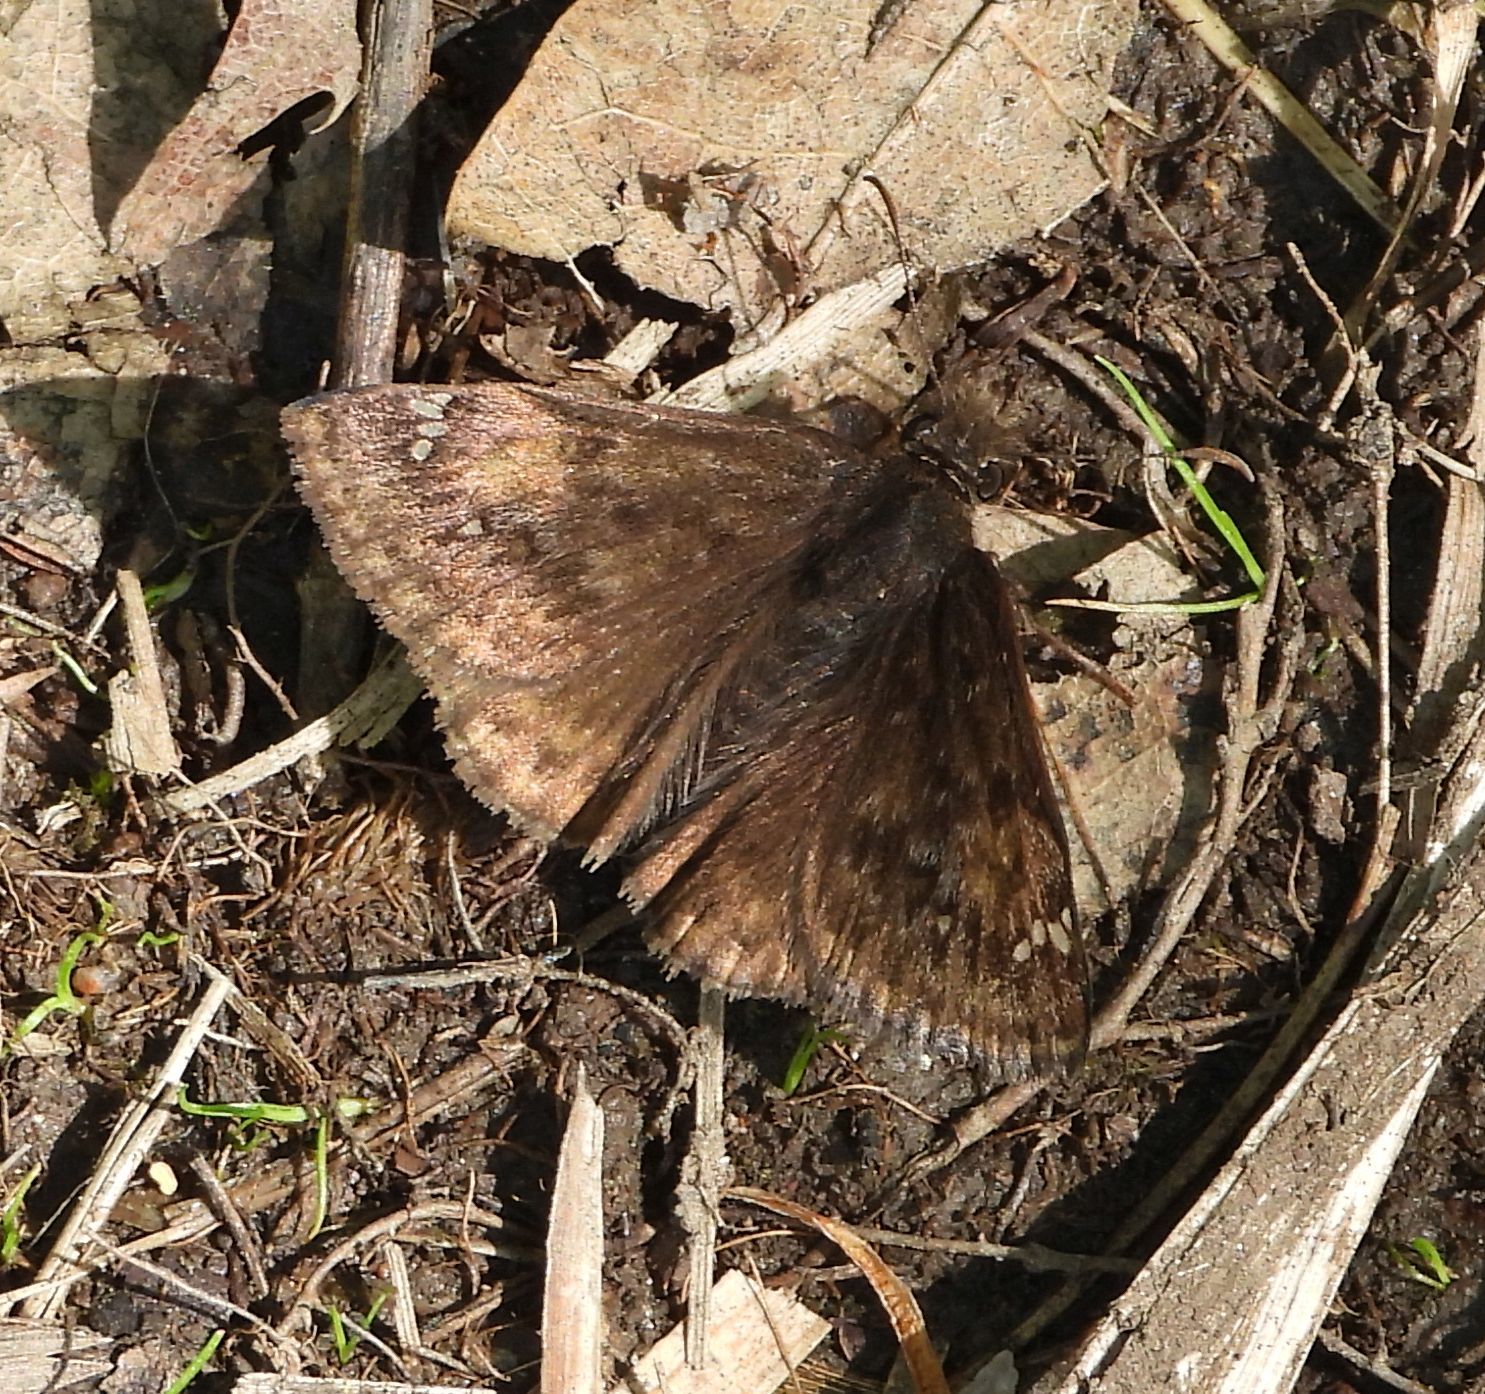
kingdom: Animalia
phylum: Arthropoda
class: Insecta
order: Lepidoptera
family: Hesperiidae
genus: Erynnis
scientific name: Erynnis juvenalis
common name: Juvenal's duskywing
